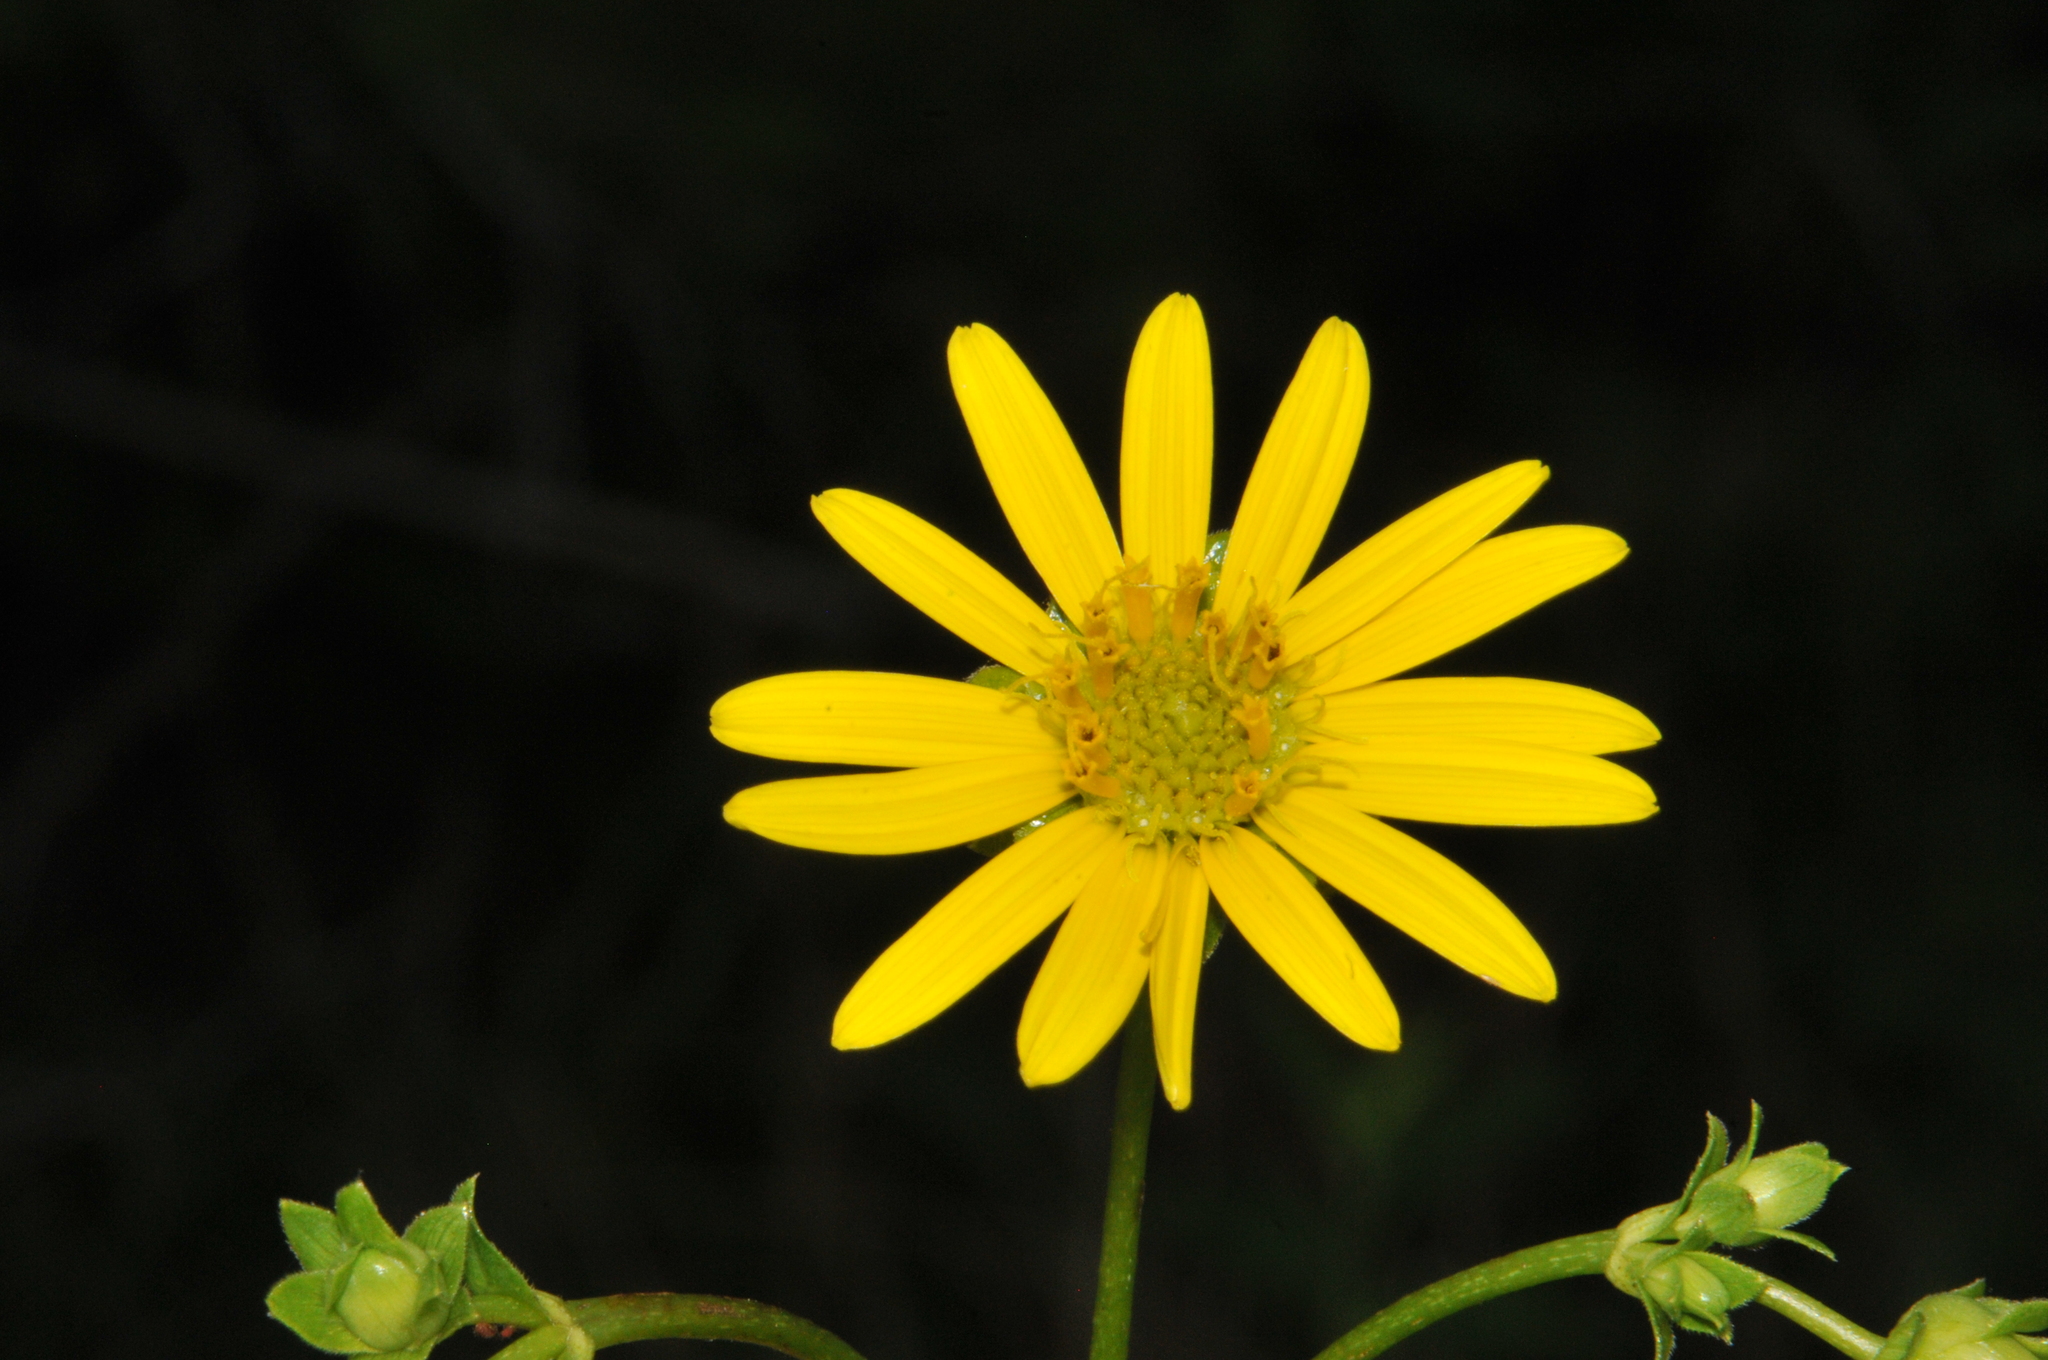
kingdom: Plantae
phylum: Tracheophyta
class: Magnoliopsida
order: Asterales
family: Asteraceae
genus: Silphium
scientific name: Silphium asteriscus
